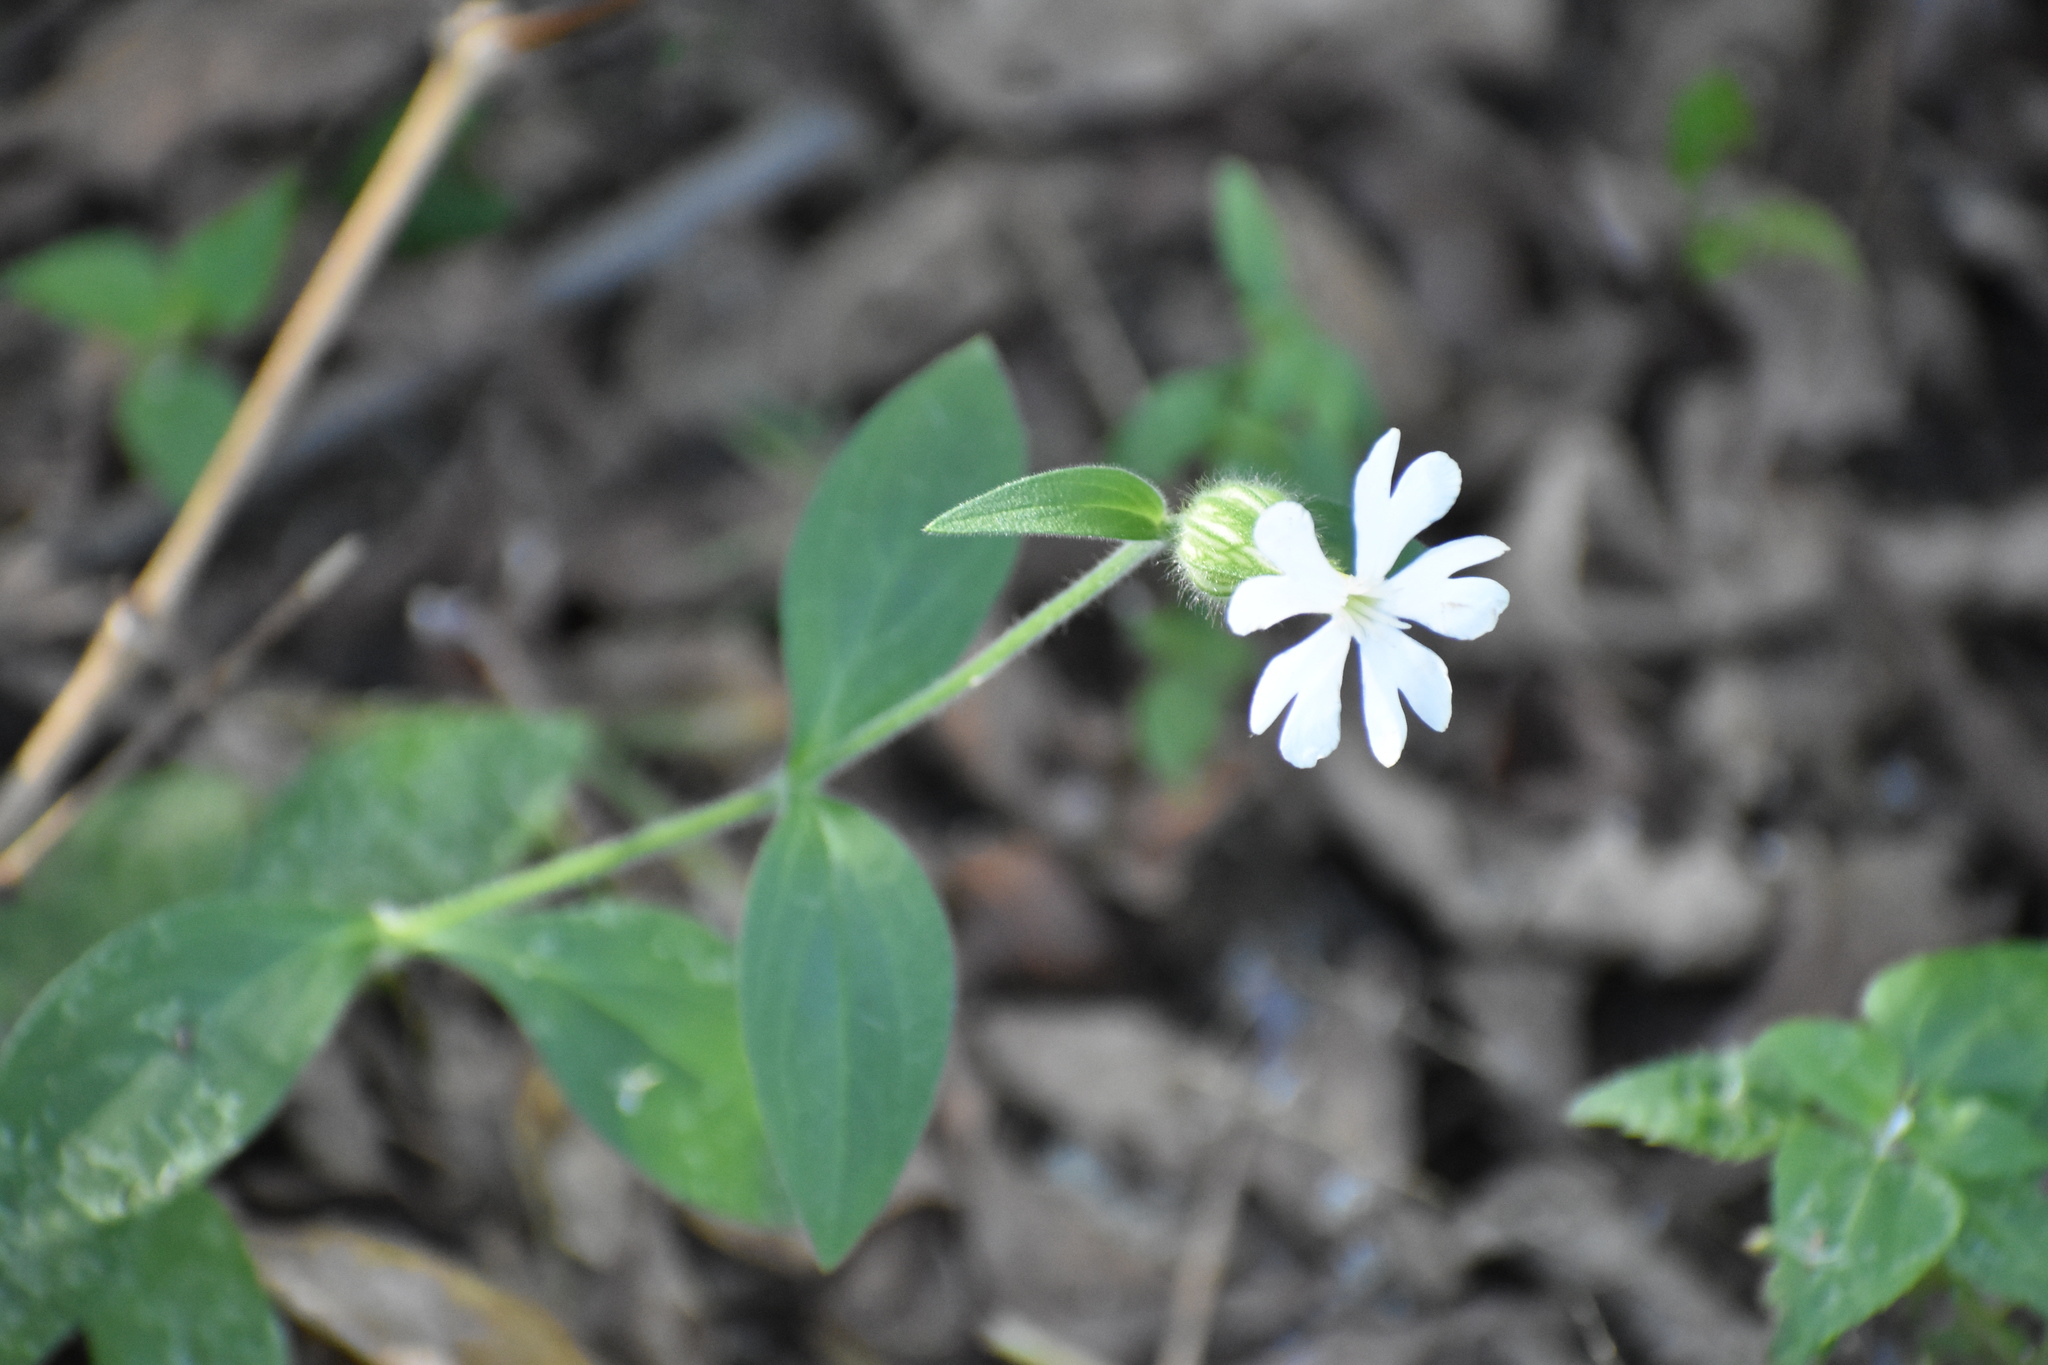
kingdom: Plantae
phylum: Tracheophyta
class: Magnoliopsida
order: Caryophyllales
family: Caryophyllaceae
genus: Silene
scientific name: Silene latifolia
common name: White campion
